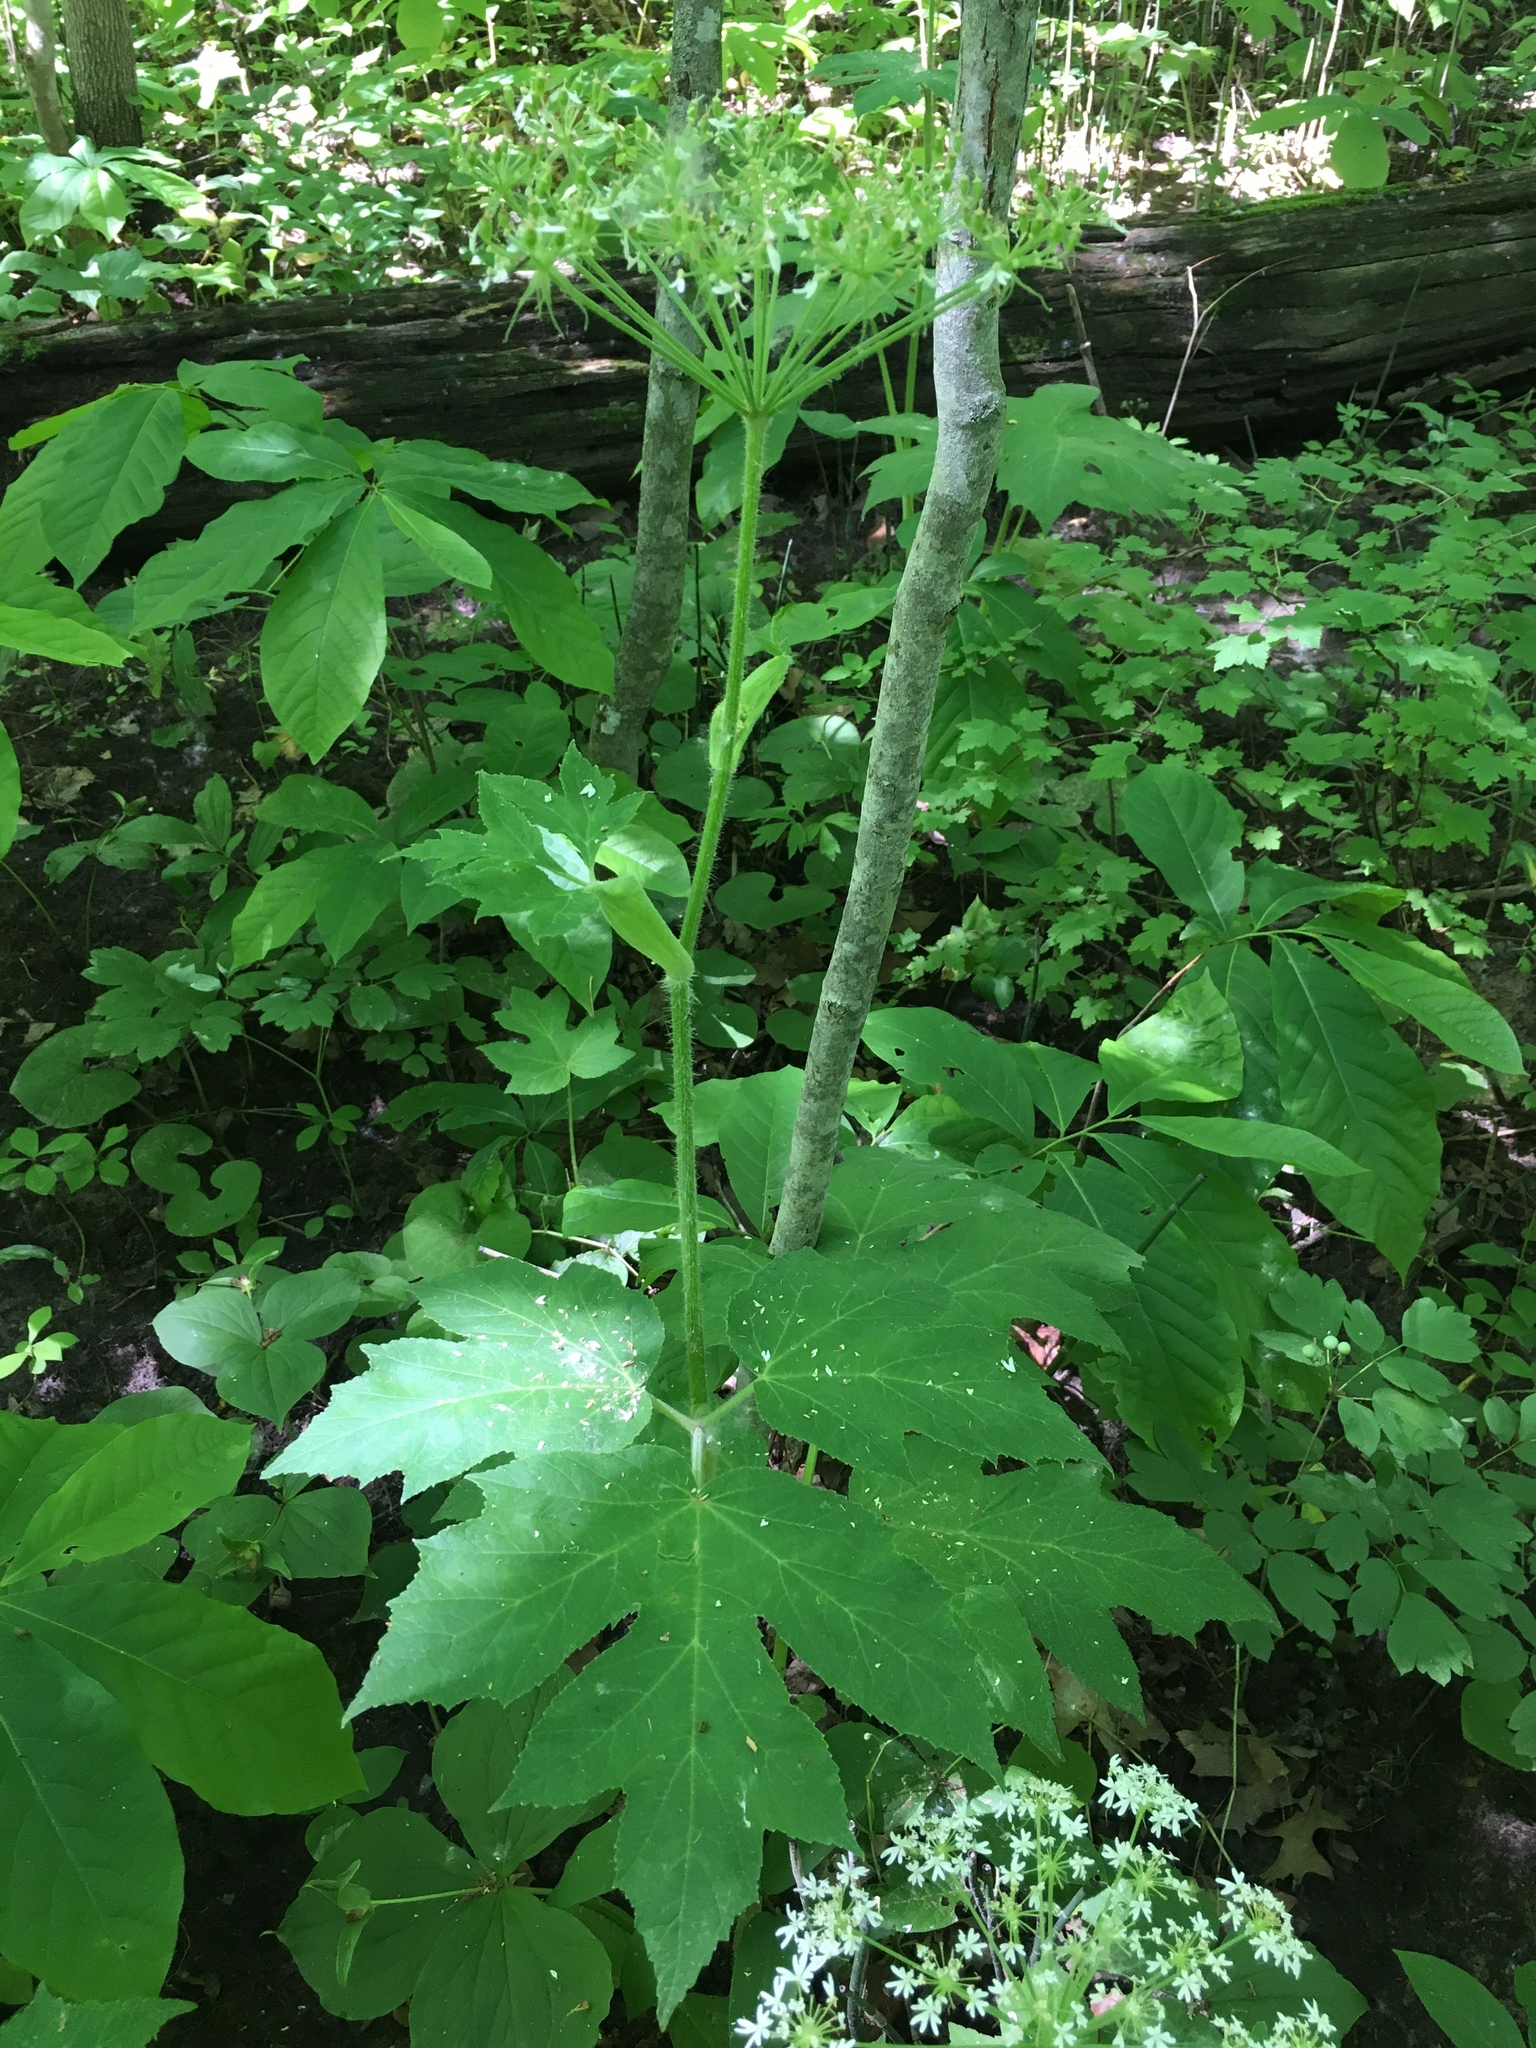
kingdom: Plantae
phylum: Tracheophyta
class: Magnoliopsida
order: Apiales
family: Apiaceae
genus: Heracleum
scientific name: Heracleum maximum
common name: American cow parsnip
